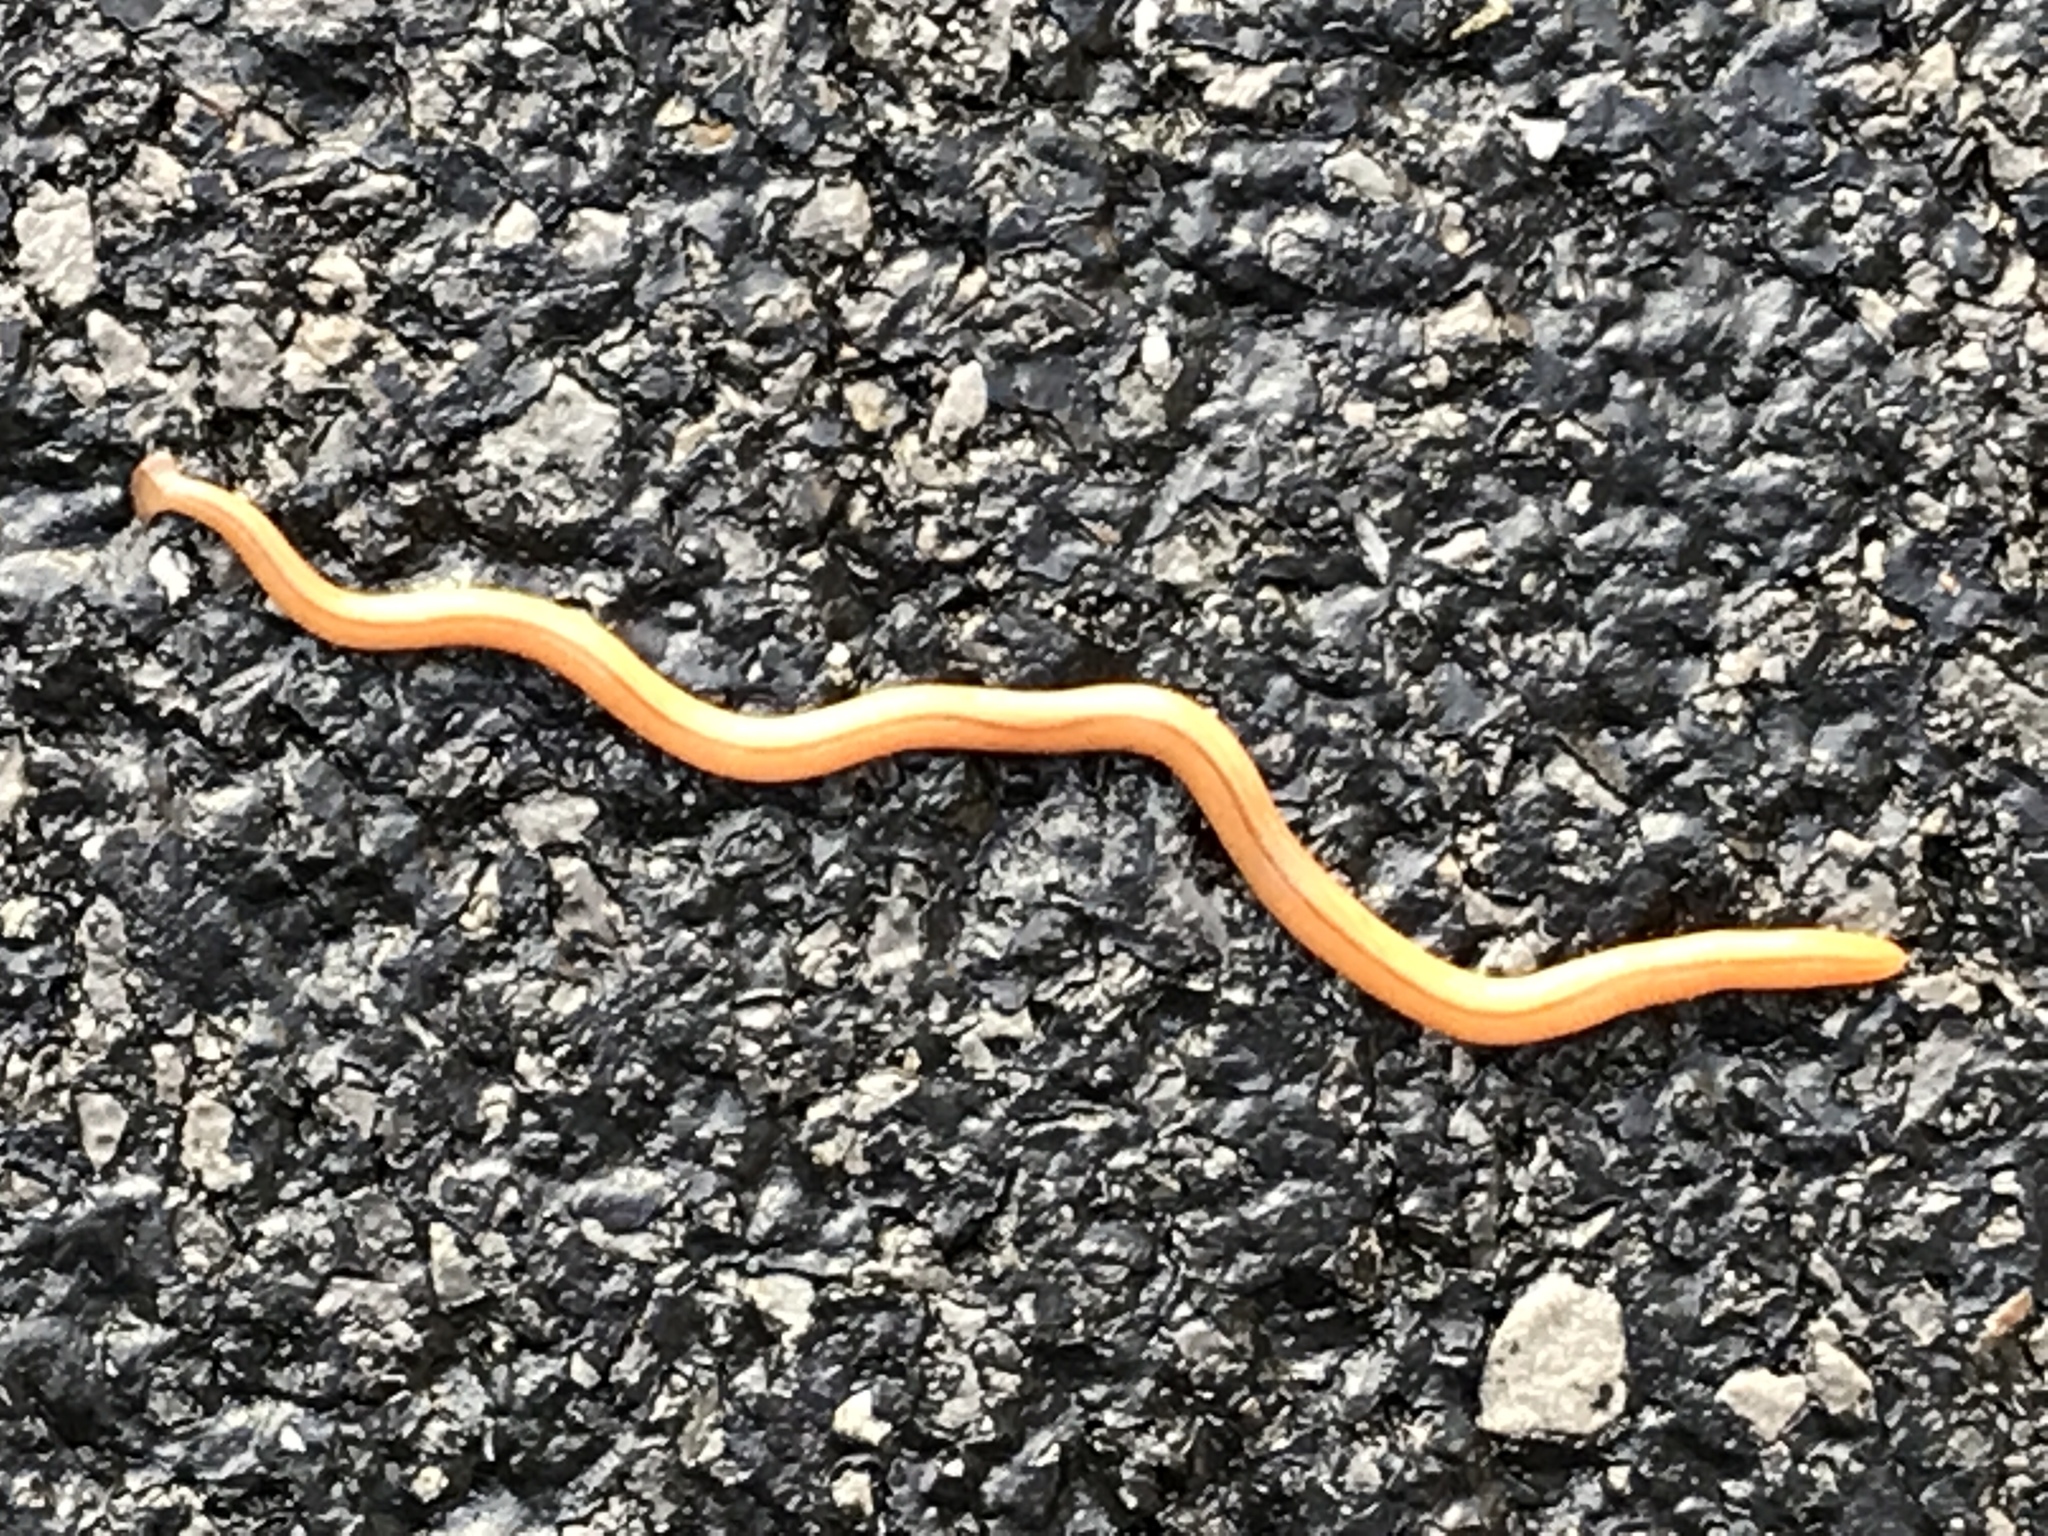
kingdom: Animalia
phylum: Platyhelminthes
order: Tricladida
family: Geoplanidae
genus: Bipalium
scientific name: Bipalium adventitium
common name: Land planarian
